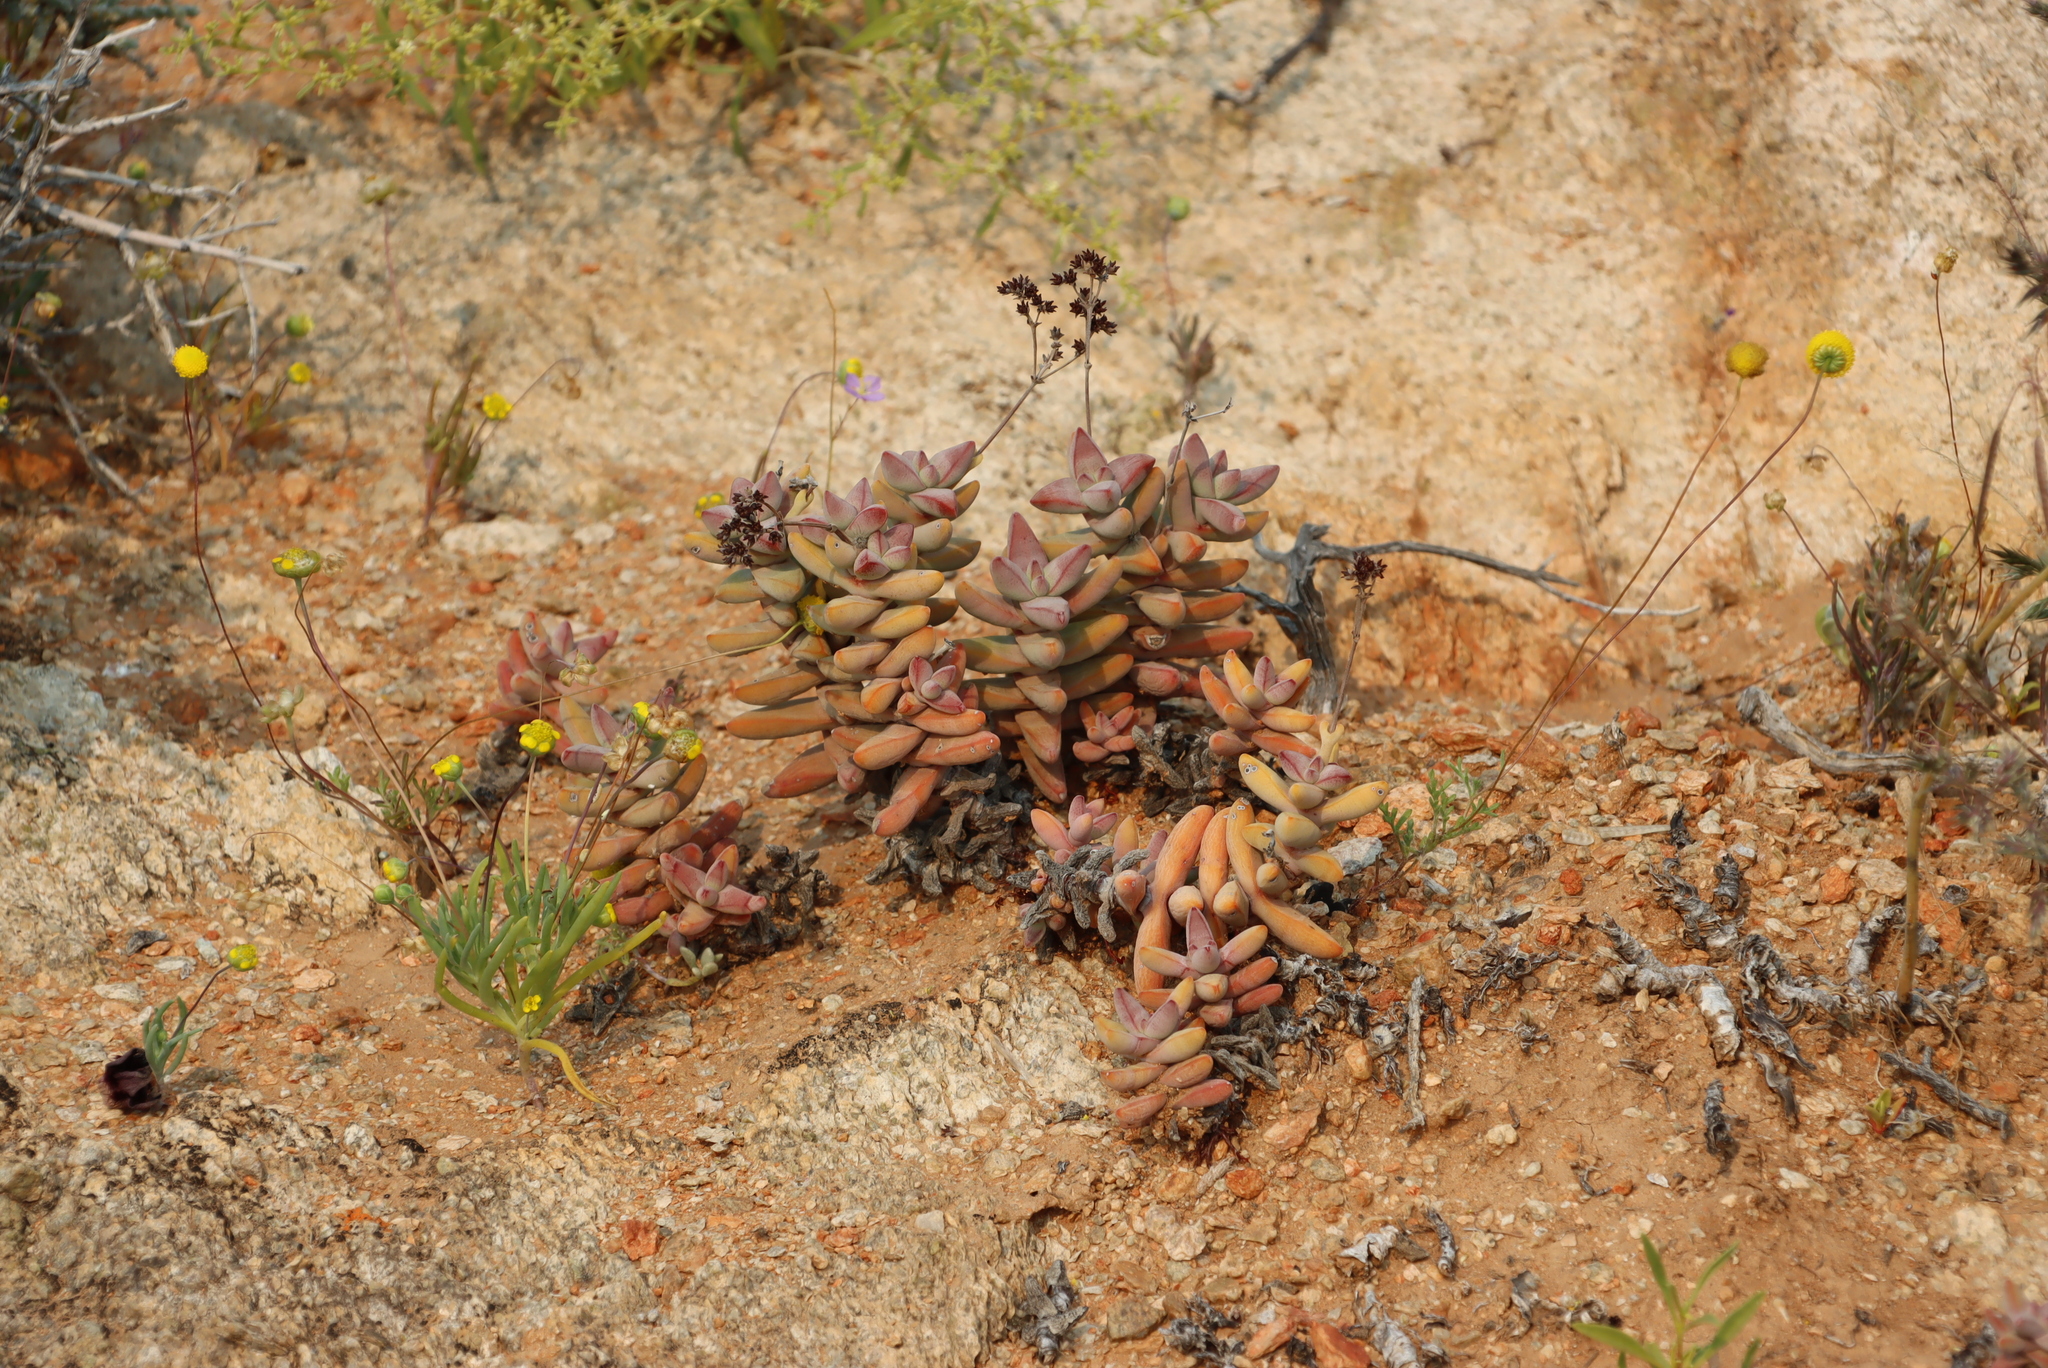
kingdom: Plantae
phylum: Tracheophyta
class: Magnoliopsida
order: Saxifragales
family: Crassulaceae
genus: Crassula
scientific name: Crassula grisea
